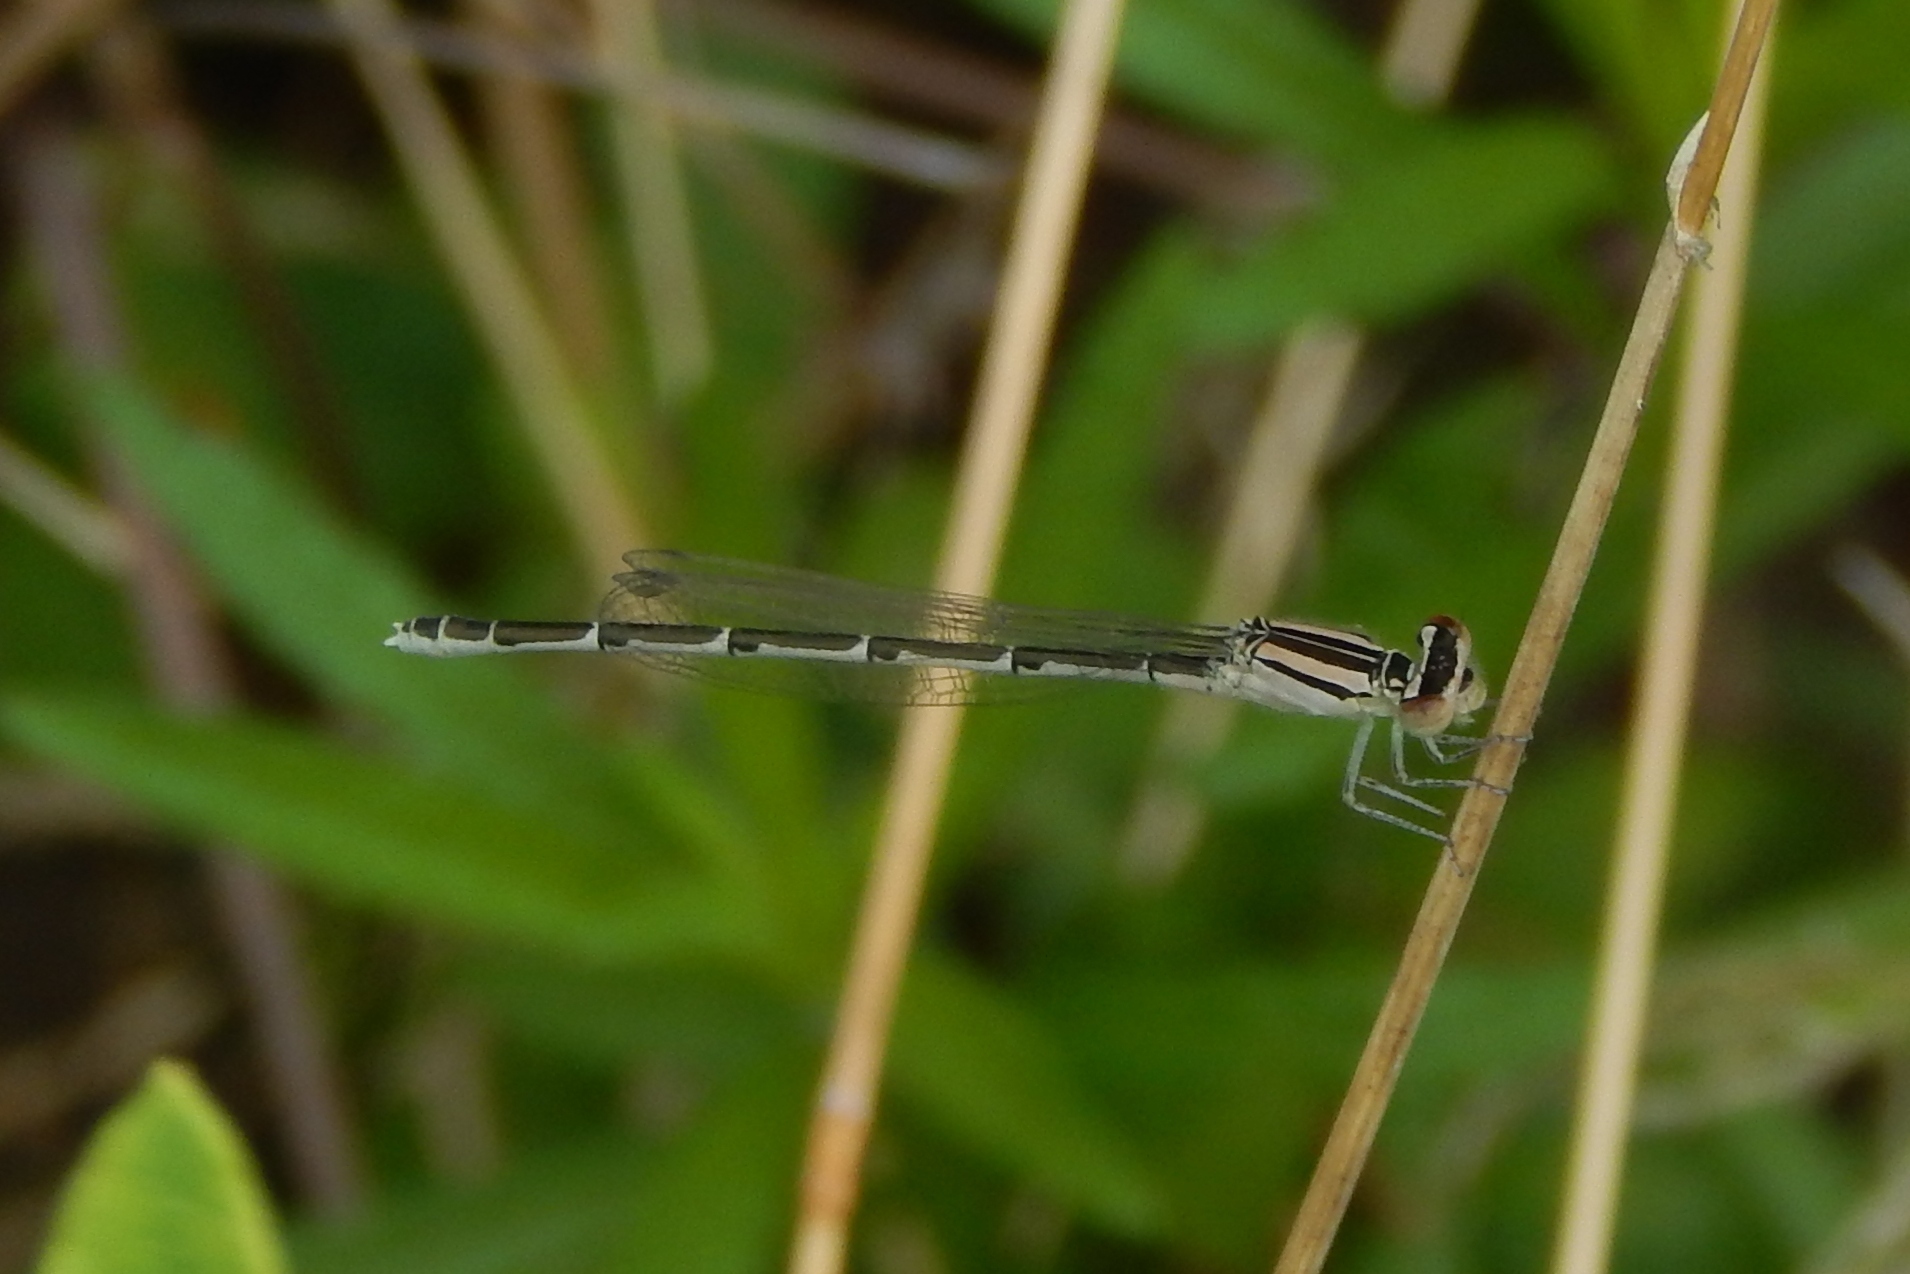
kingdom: Animalia
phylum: Arthropoda
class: Insecta
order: Odonata
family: Coenagrionidae
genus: Enallagma
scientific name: Enallagma durum
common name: Big bluet
